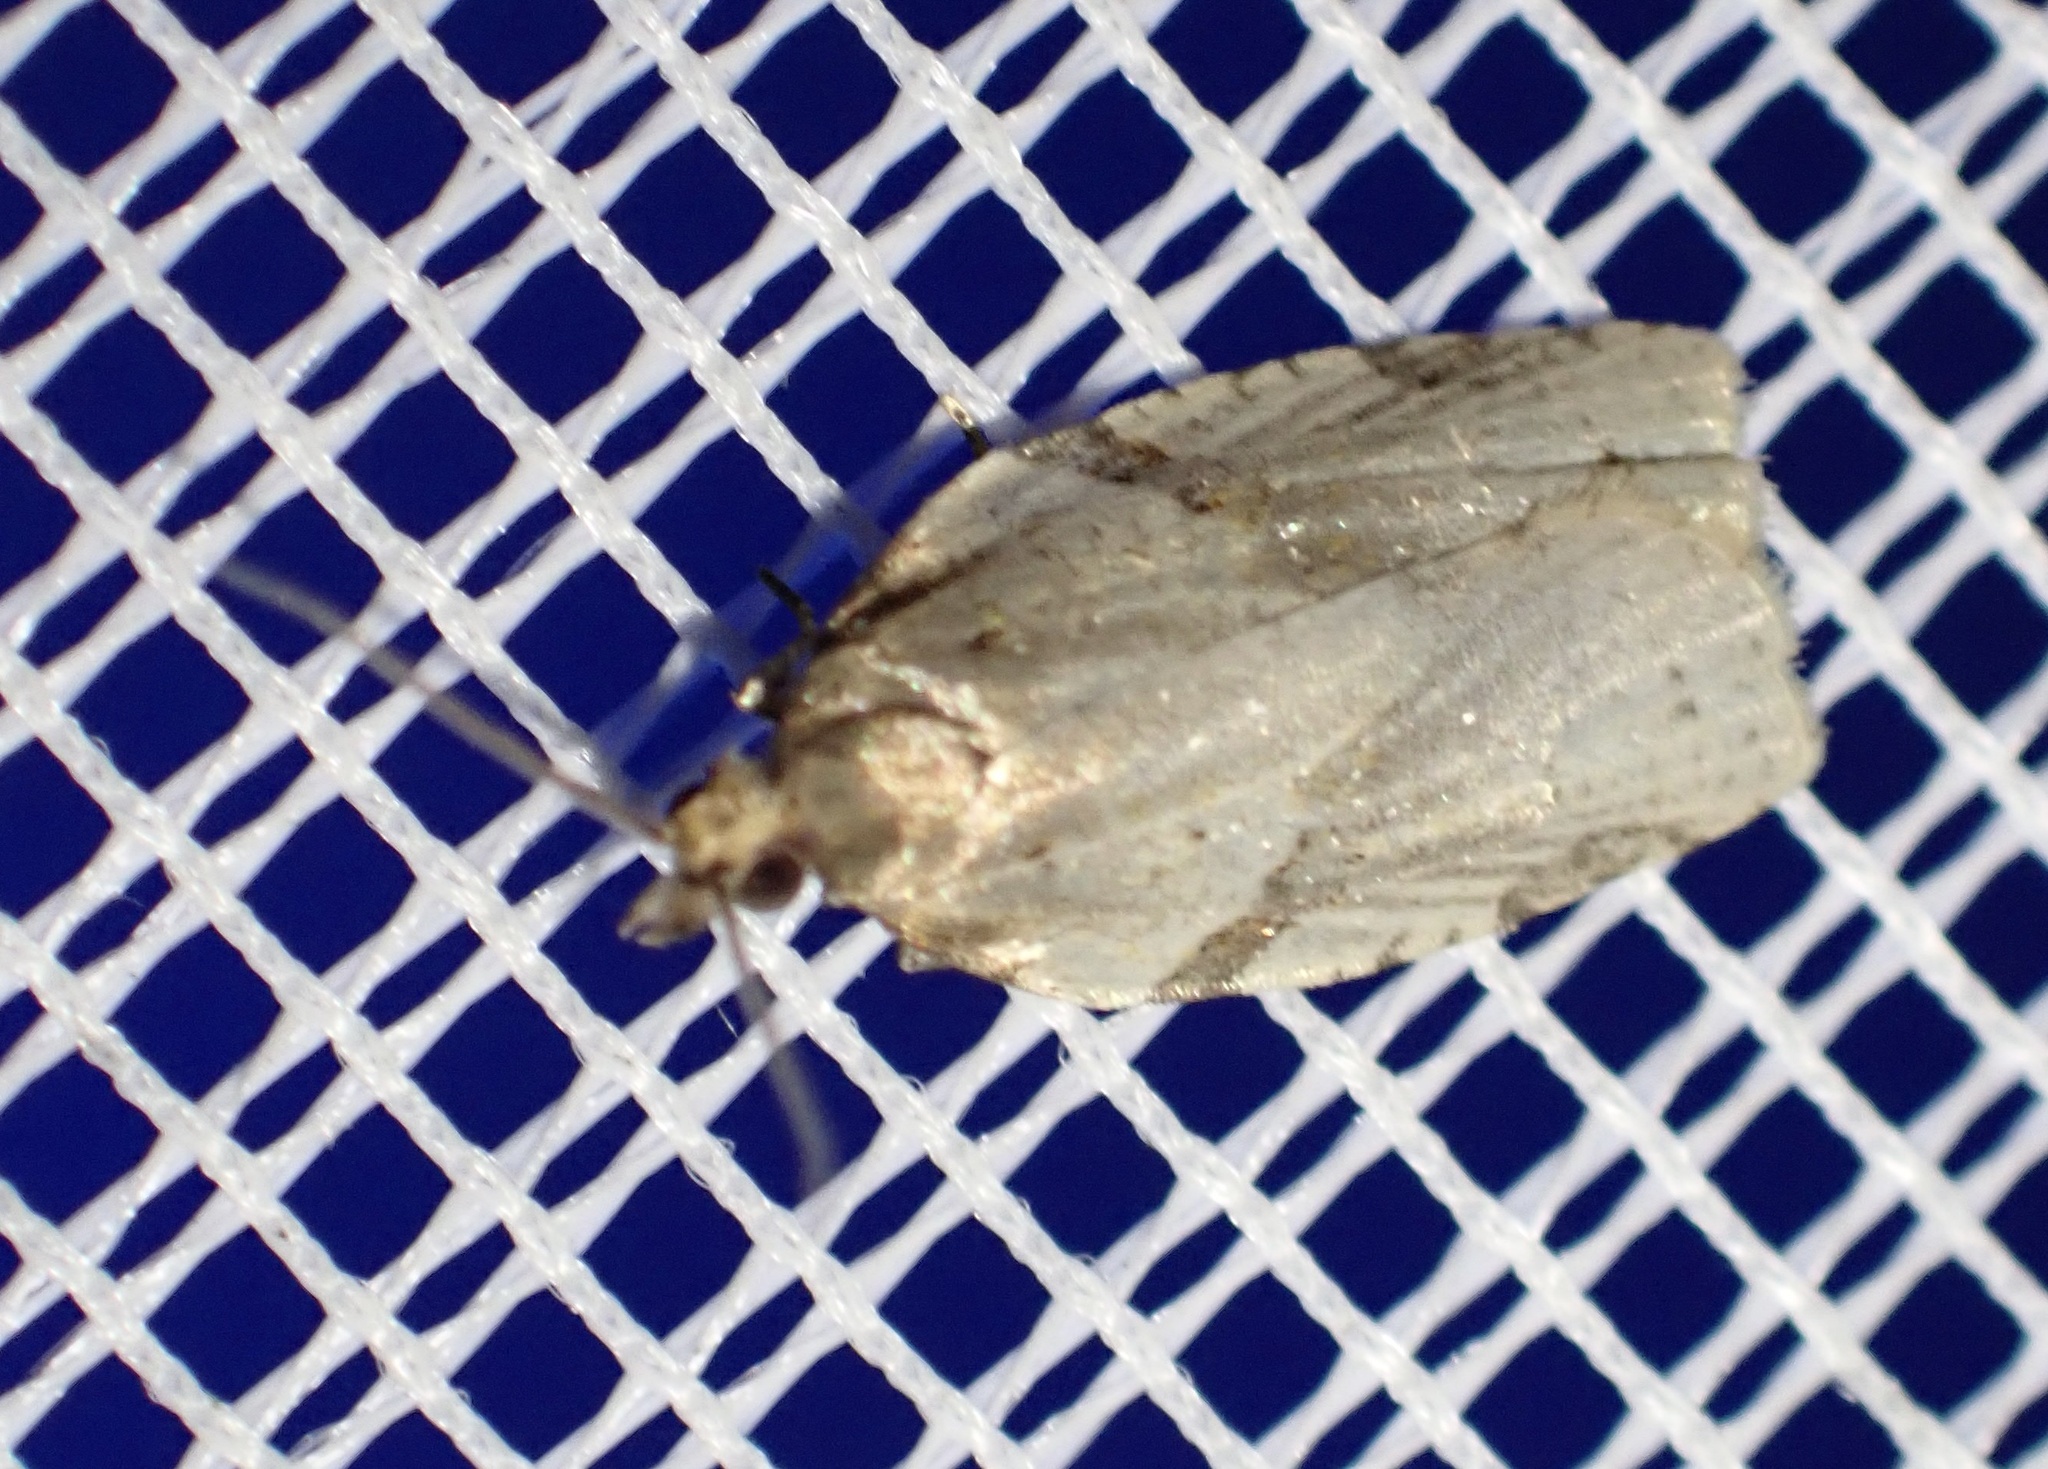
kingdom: Animalia
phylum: Arthropoda
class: Insecta
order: Lepidoptera
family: Tortricidae
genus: Clepsis
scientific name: Clepsis spectrana
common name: Cyclamen tortrix
